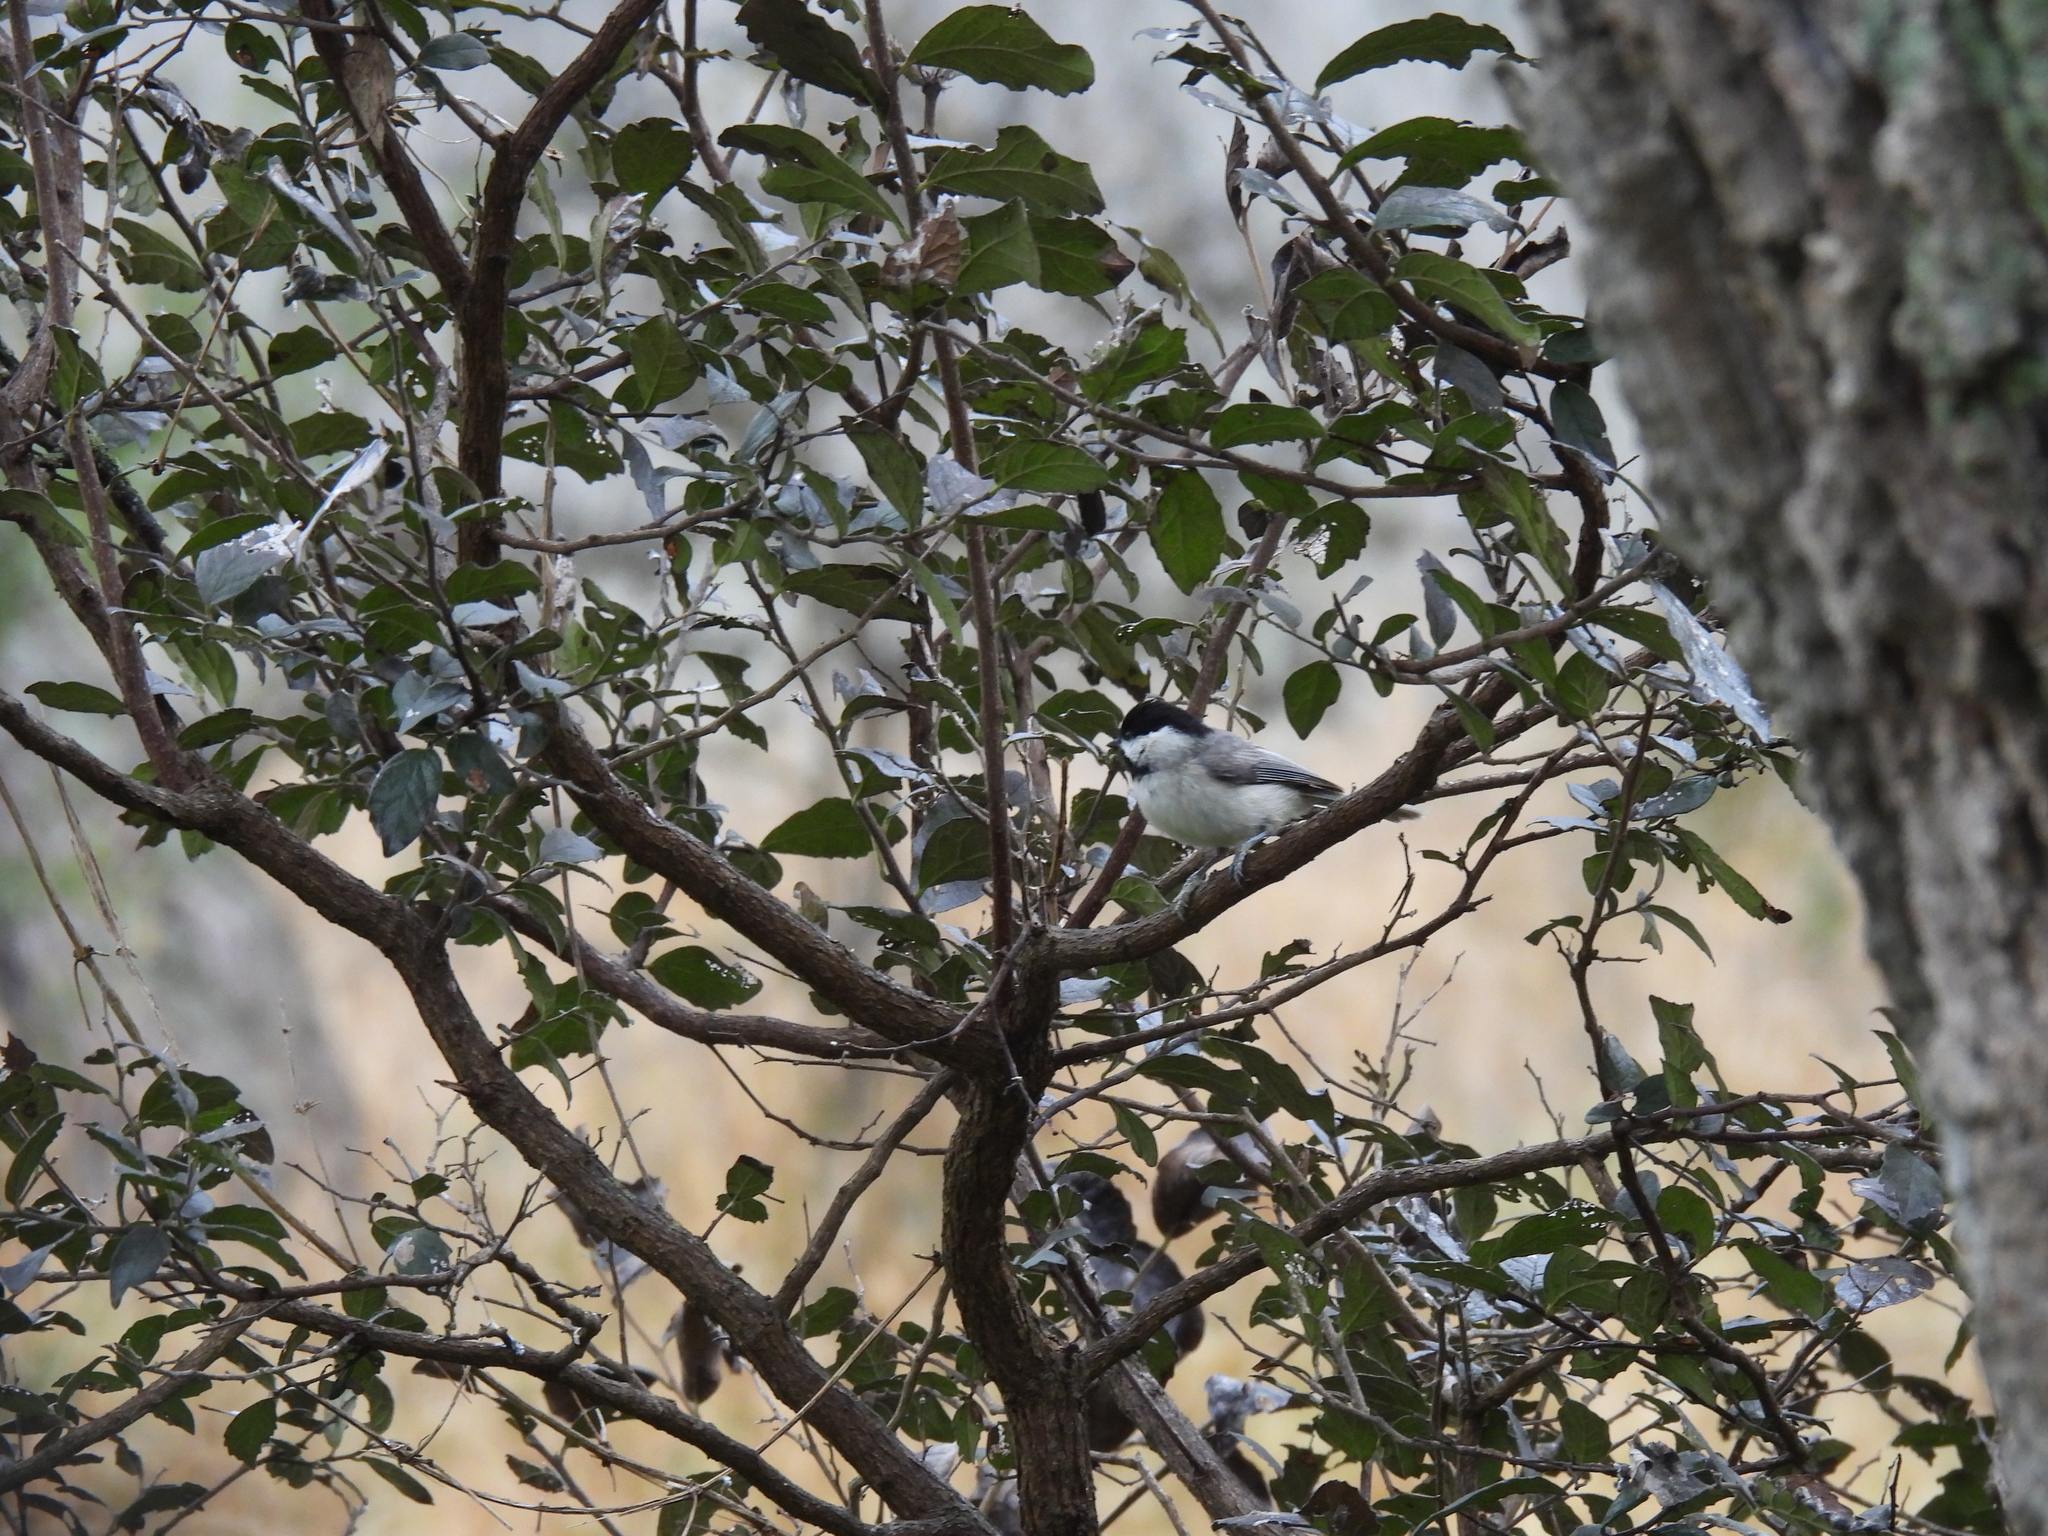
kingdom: Animalia
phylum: Chordata
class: Aves
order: Passeriformes
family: Paridae
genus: Poecile
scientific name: Poecile carolinensis
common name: Carolina chickadee
